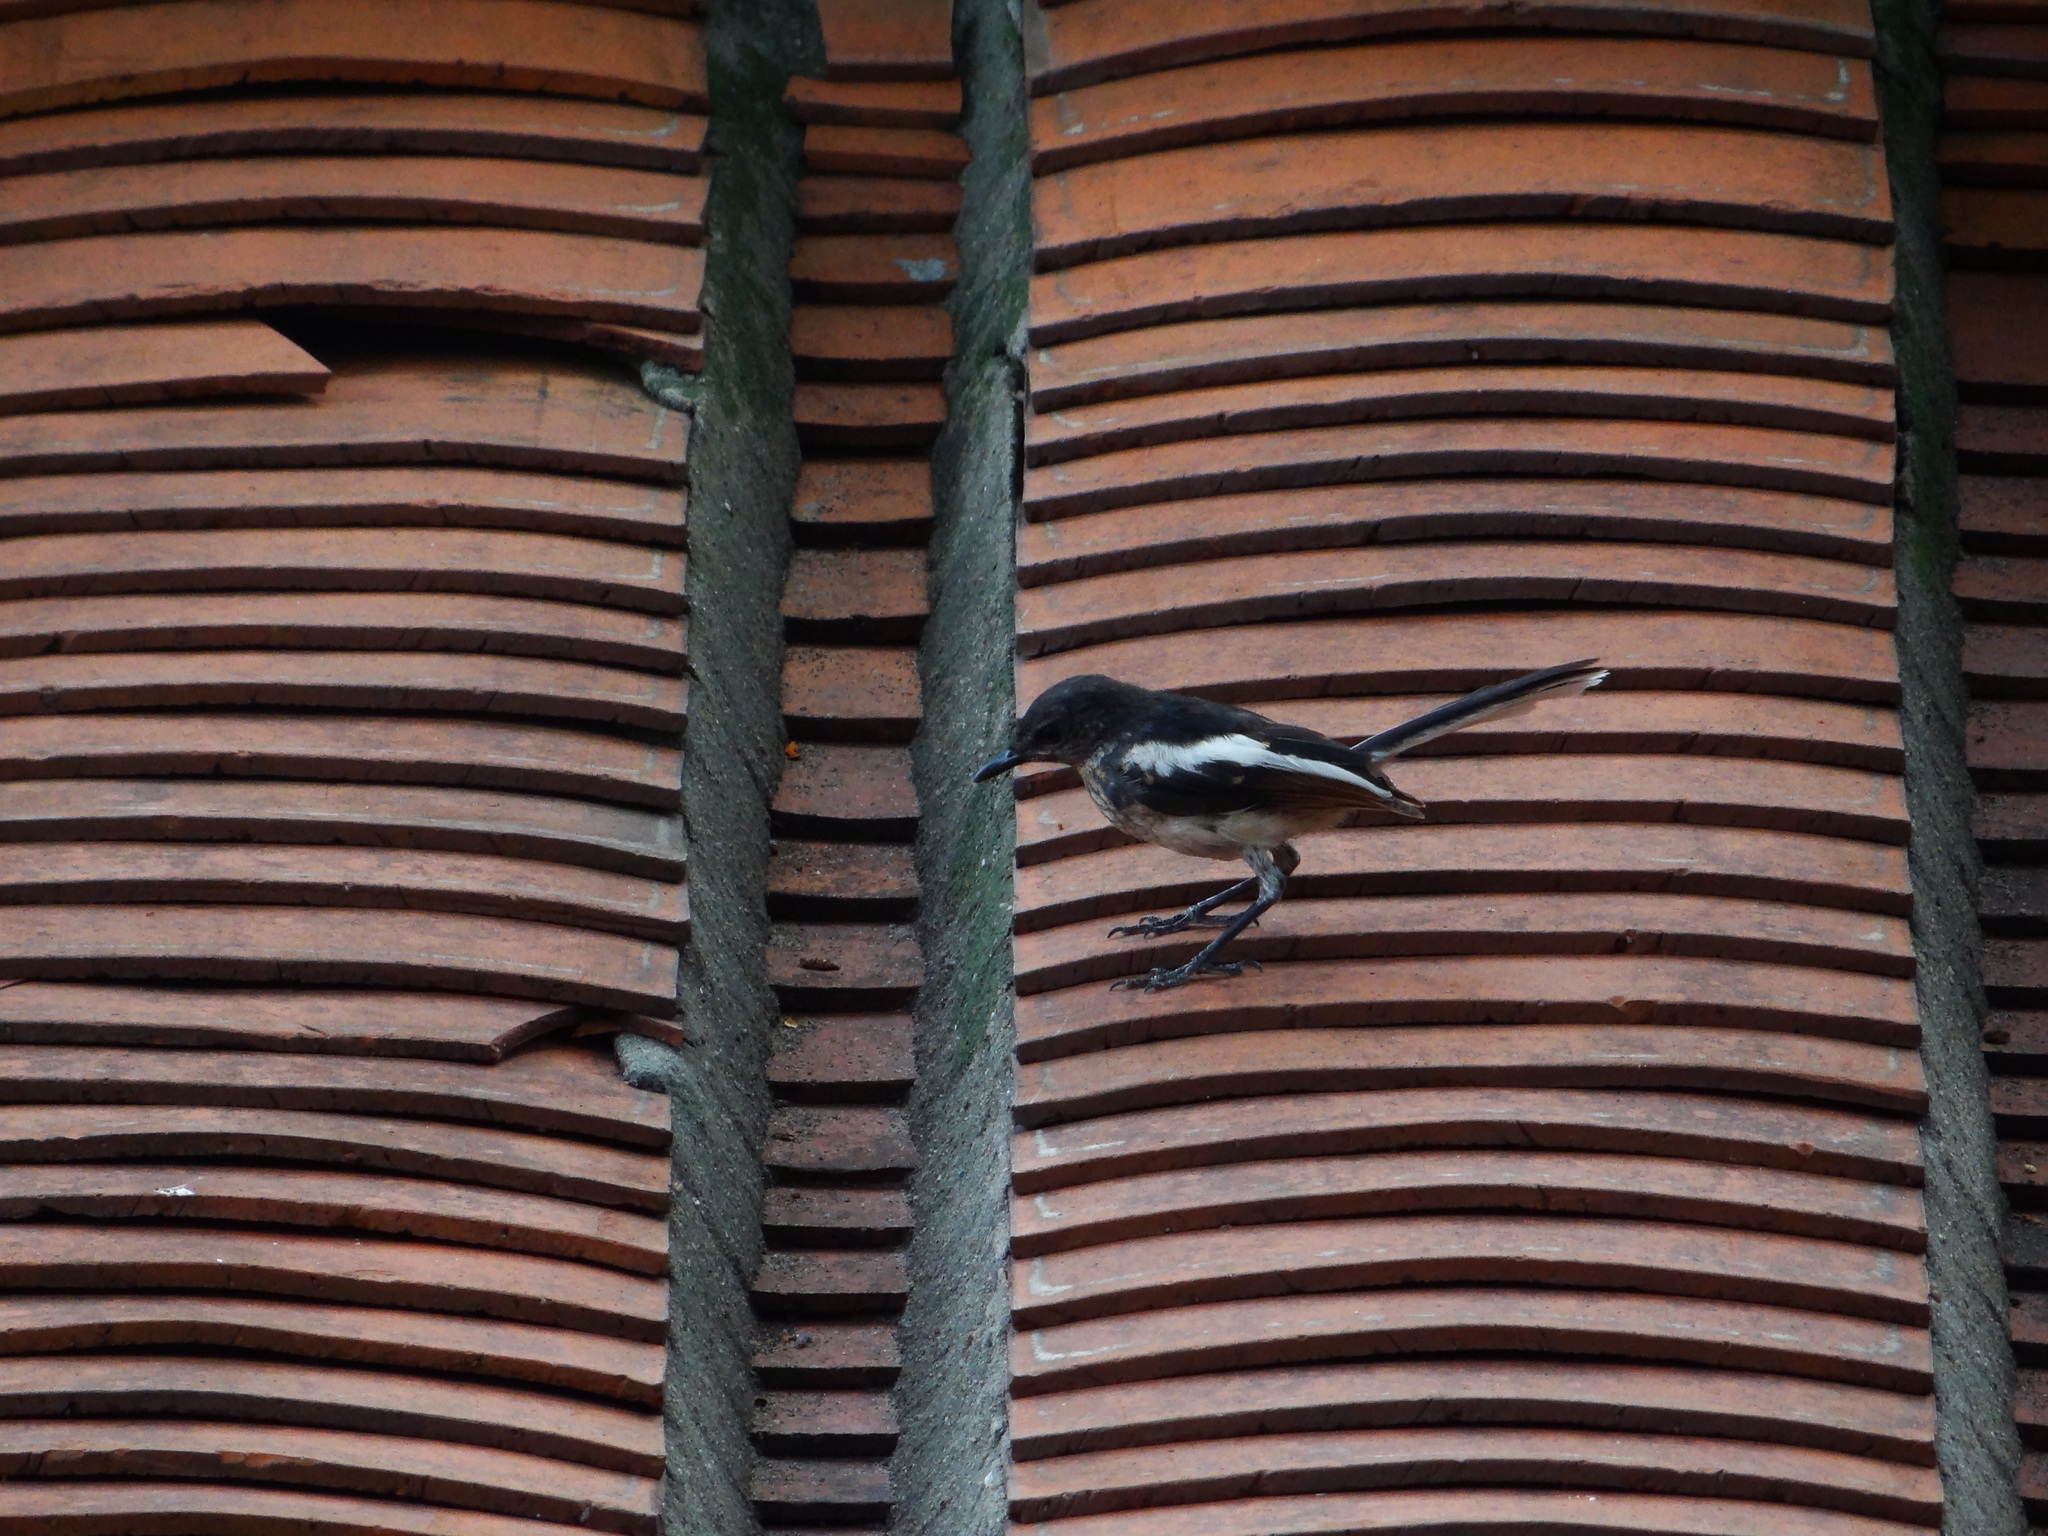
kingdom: Animalia
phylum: Chordata
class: Aves
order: Passeriformes
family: Muscicapidae
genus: Copsychus
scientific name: Copsychus saularis
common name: Oriental magpie-robin
